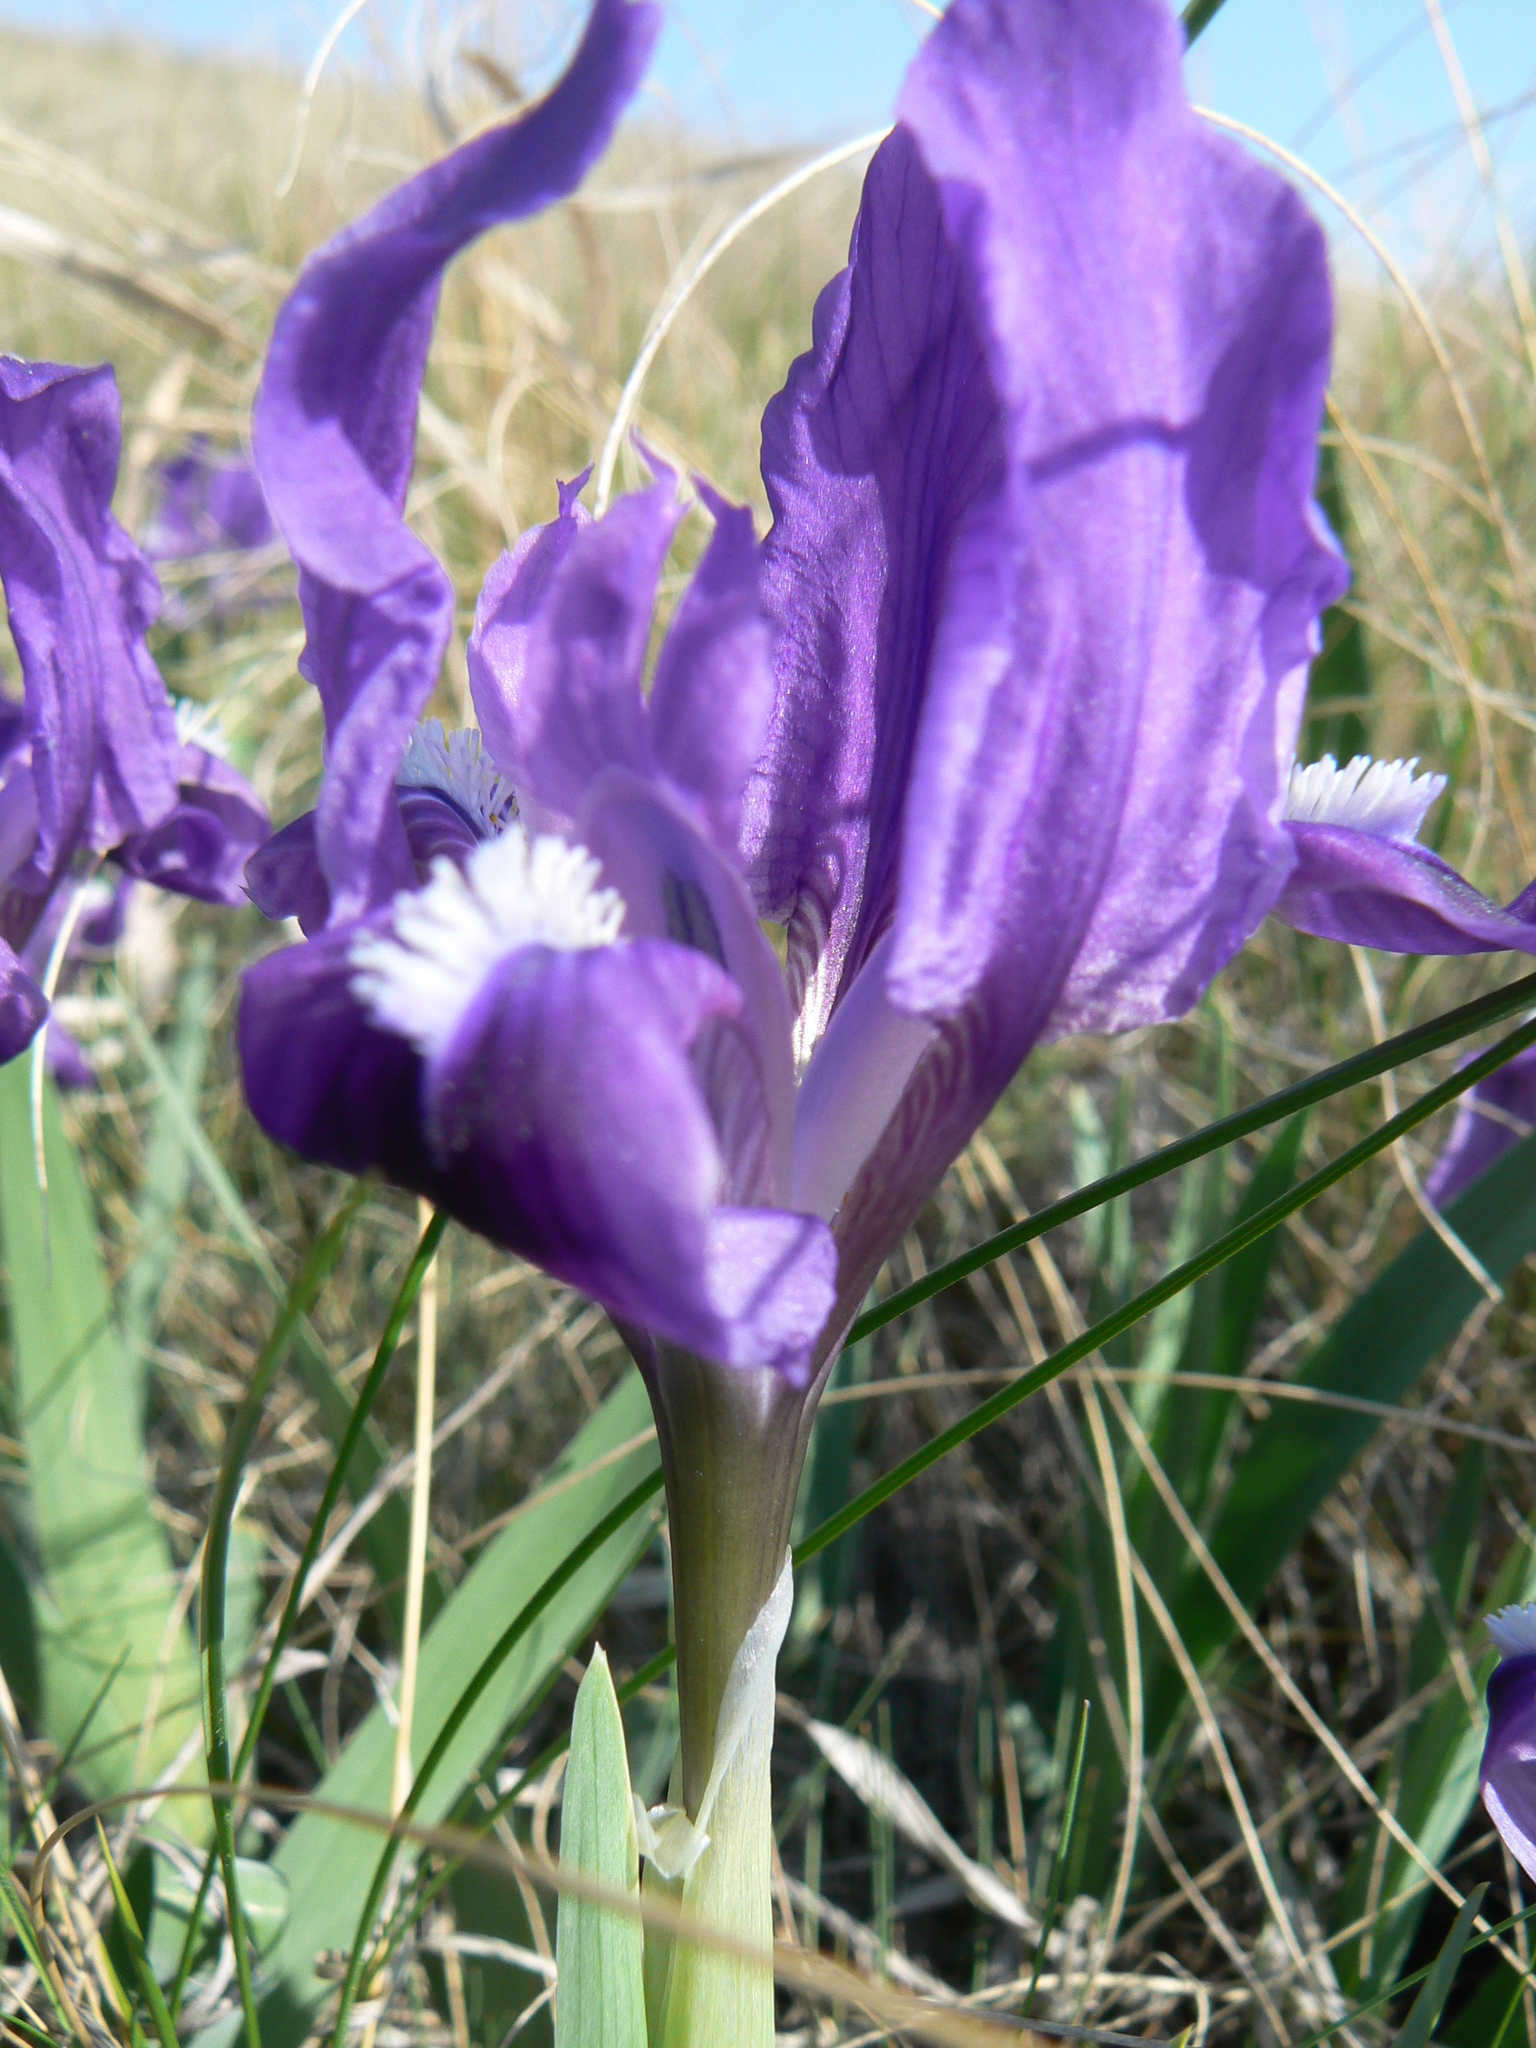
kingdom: Plantae
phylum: Tracheophyta
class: Liliopsida
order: Asparagales
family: Iridaceae
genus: Iris
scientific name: Iris pumila
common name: Dwarf iris
